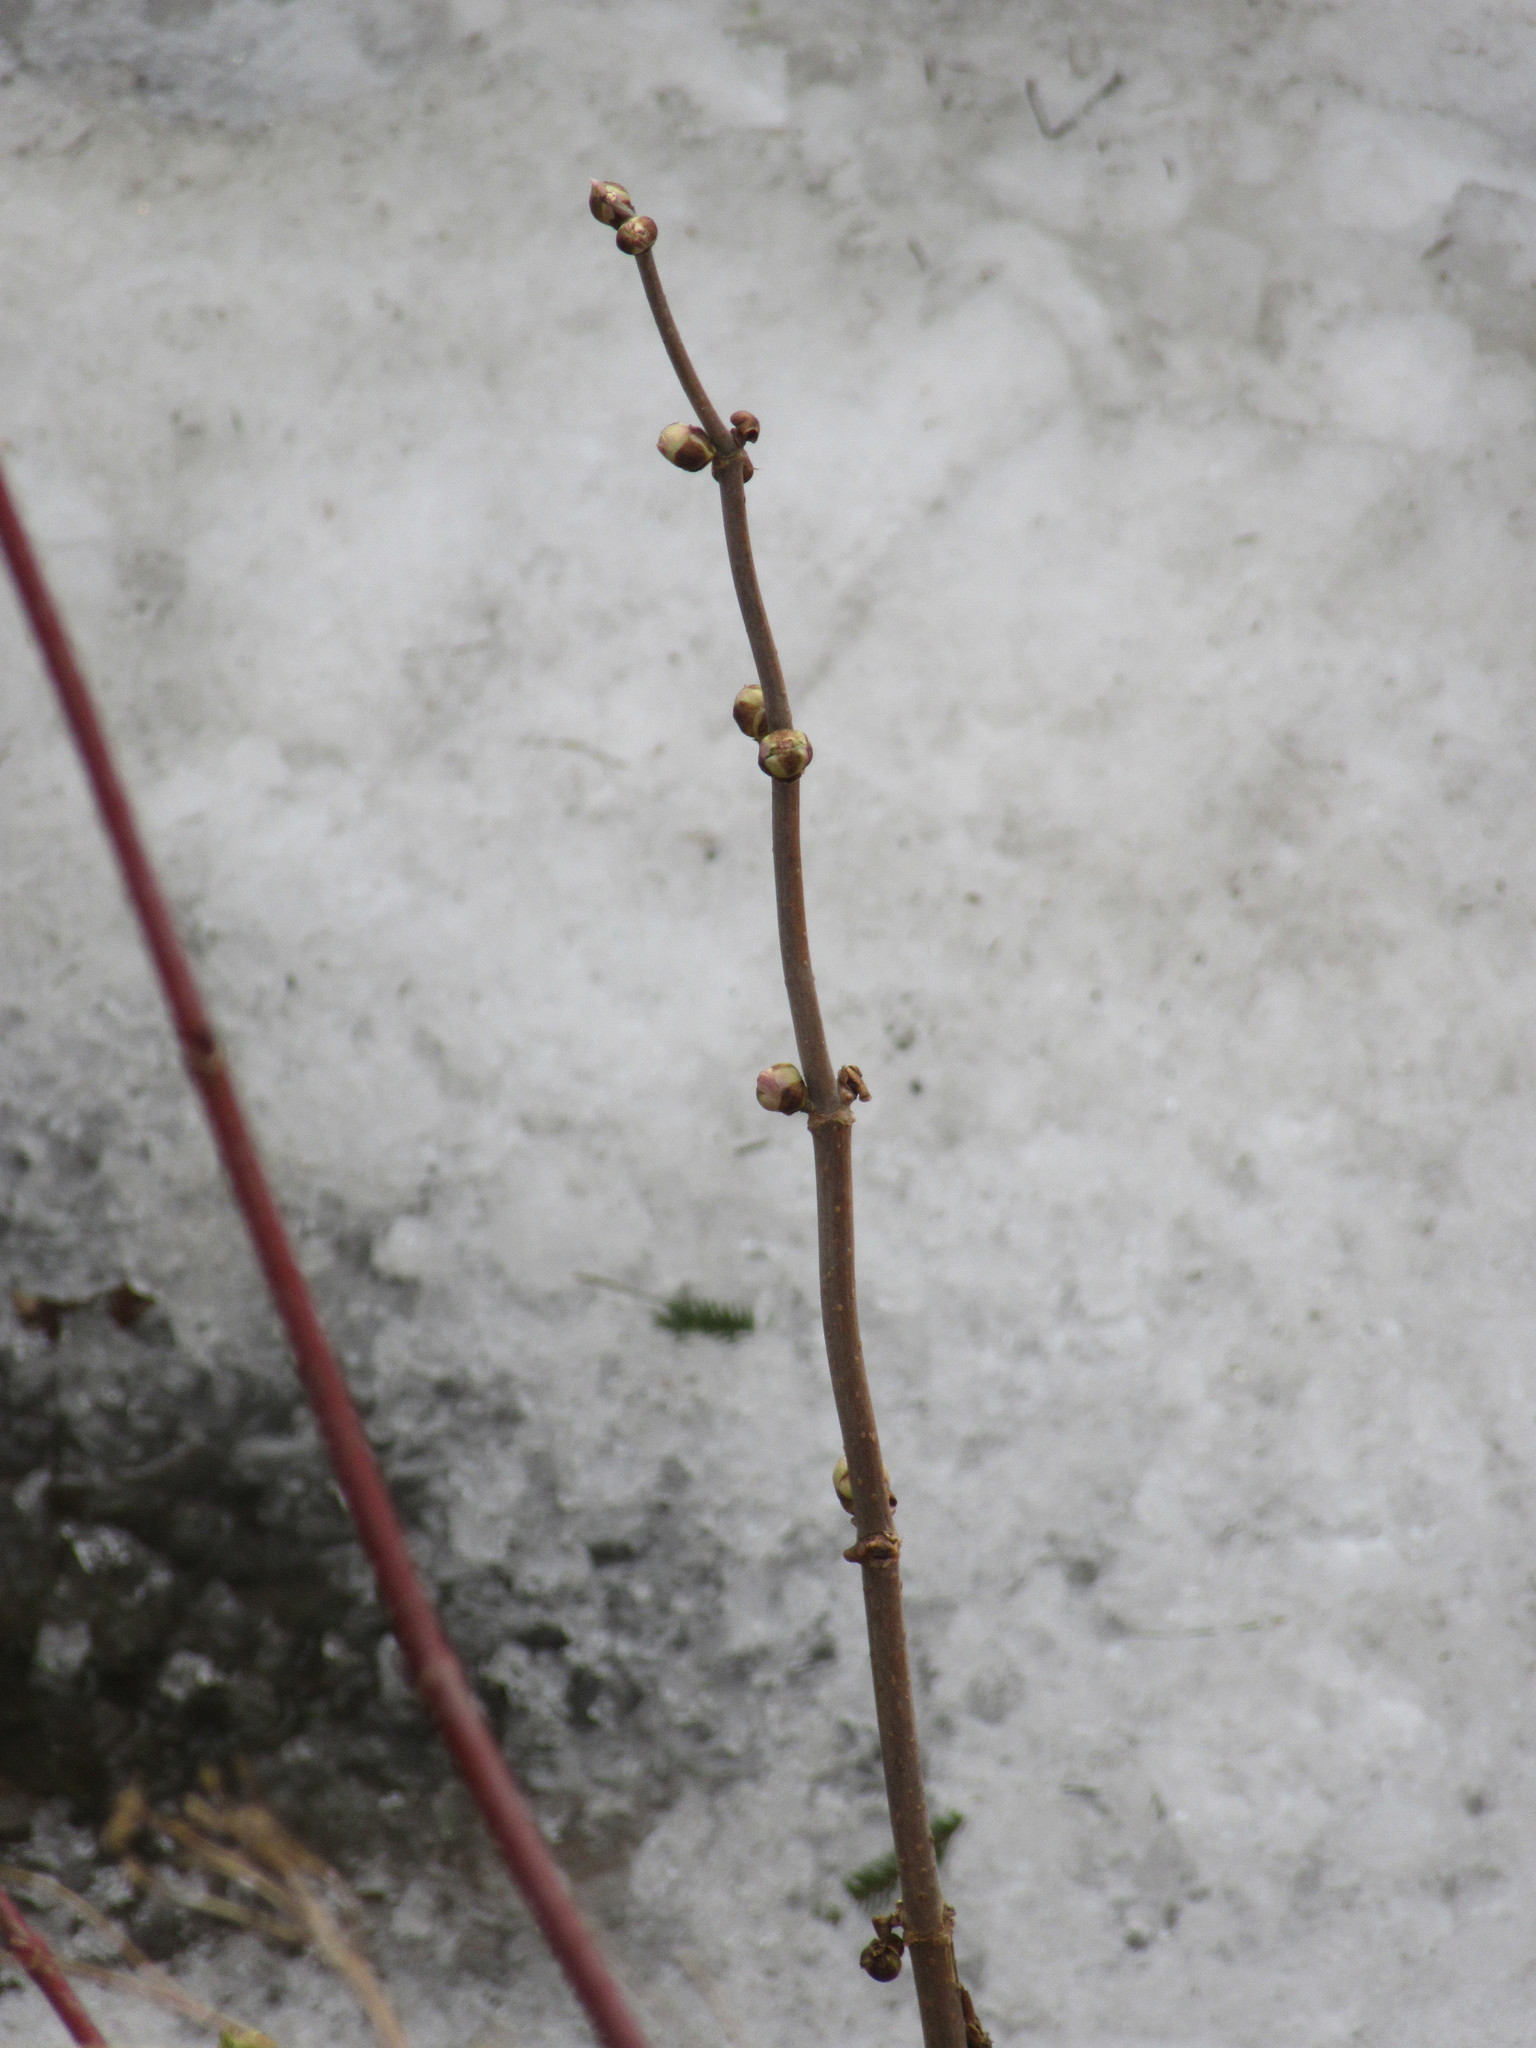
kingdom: Plantae
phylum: Tracheophyta
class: Magnoliopsida
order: Dipsacales
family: Viburnaceae
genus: Sambucus
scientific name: Sambucus racemosa
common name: Red-berried elder
